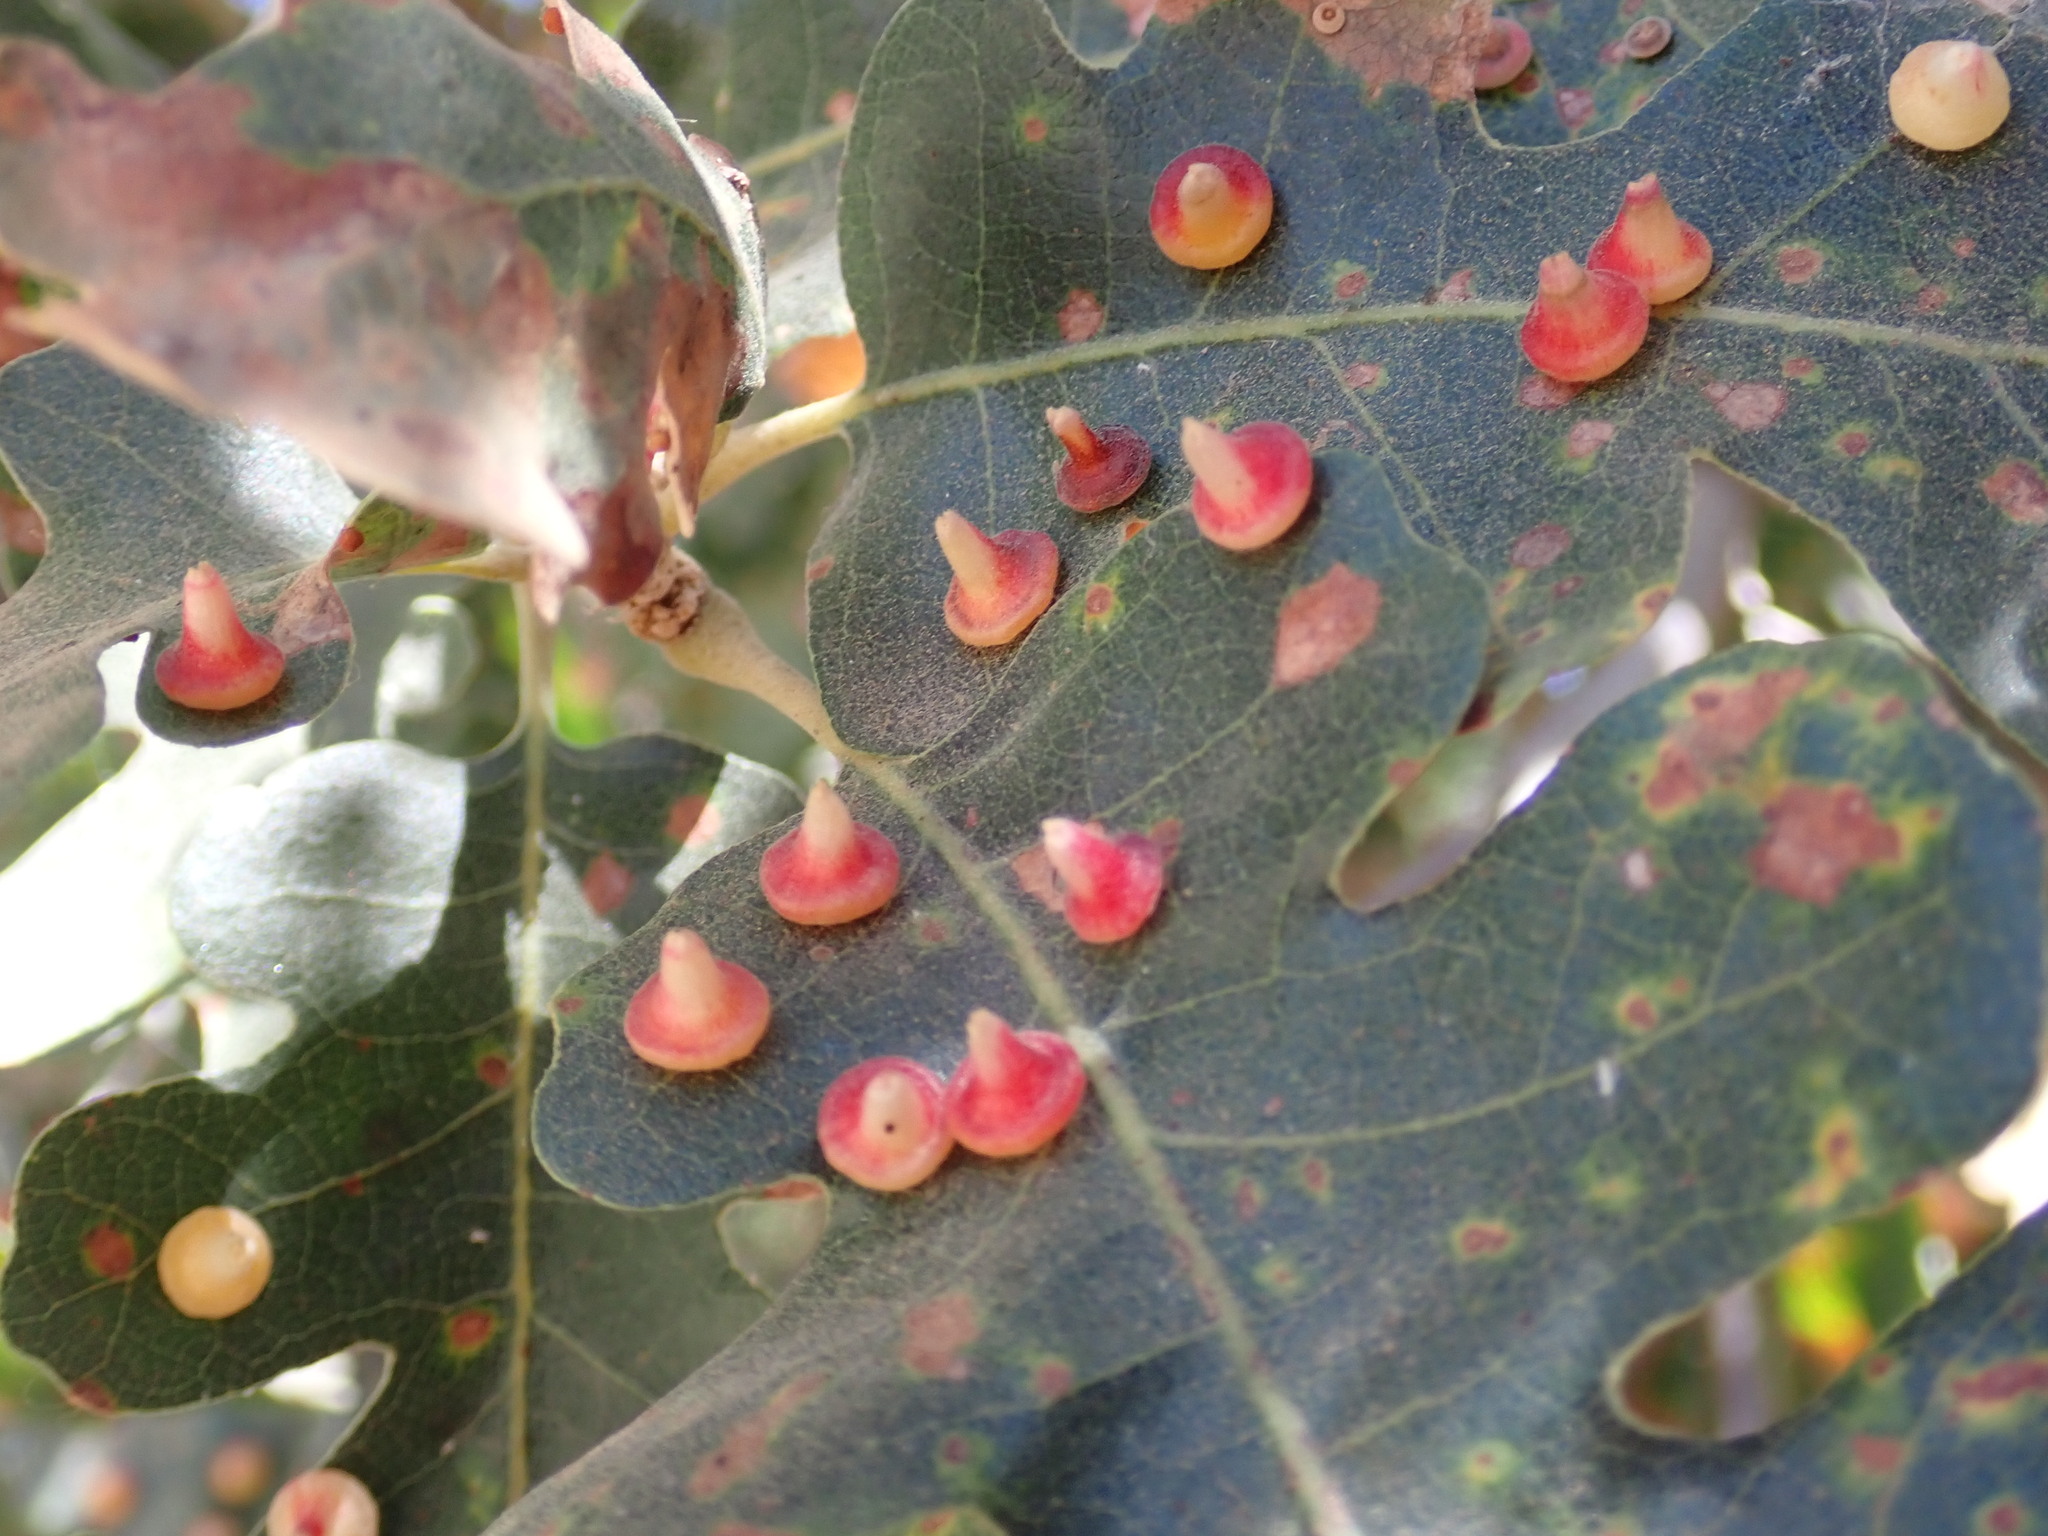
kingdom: Animalia
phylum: Arthropoda
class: Insecta
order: Hymenoptera
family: Cynipidae
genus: Andricus
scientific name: Andricus
